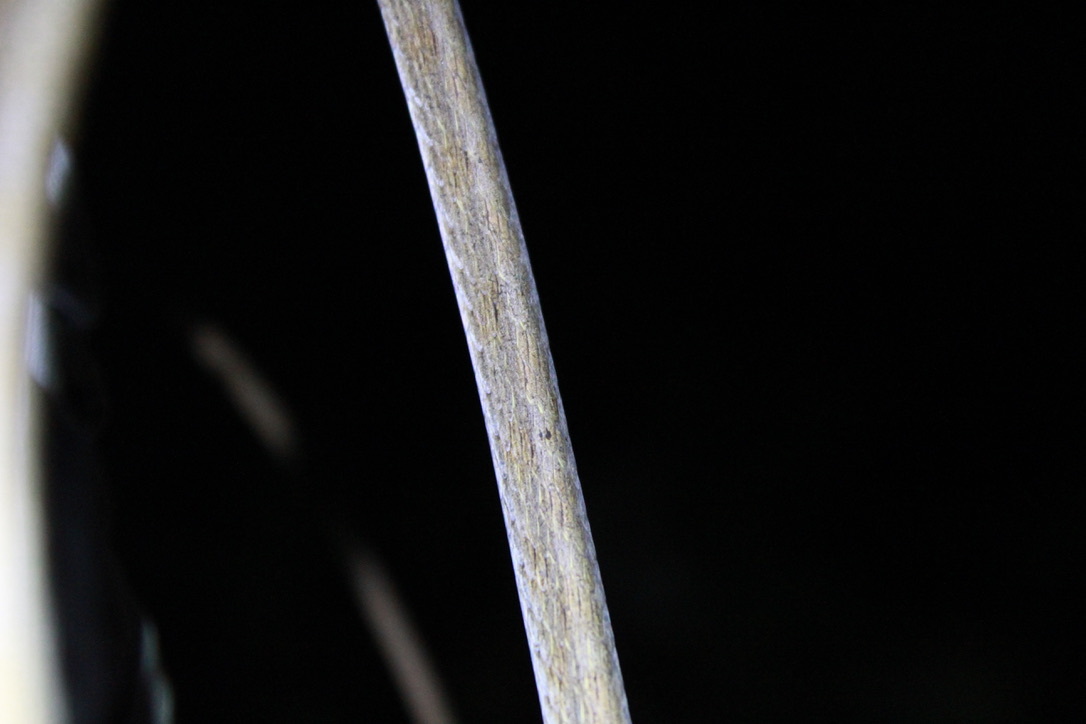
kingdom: Animalia
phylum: Chordata
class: Squamata
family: Colubridae
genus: Oxybelis
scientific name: Oxybelis rutherfordi
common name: Rutherford’s vine snake
